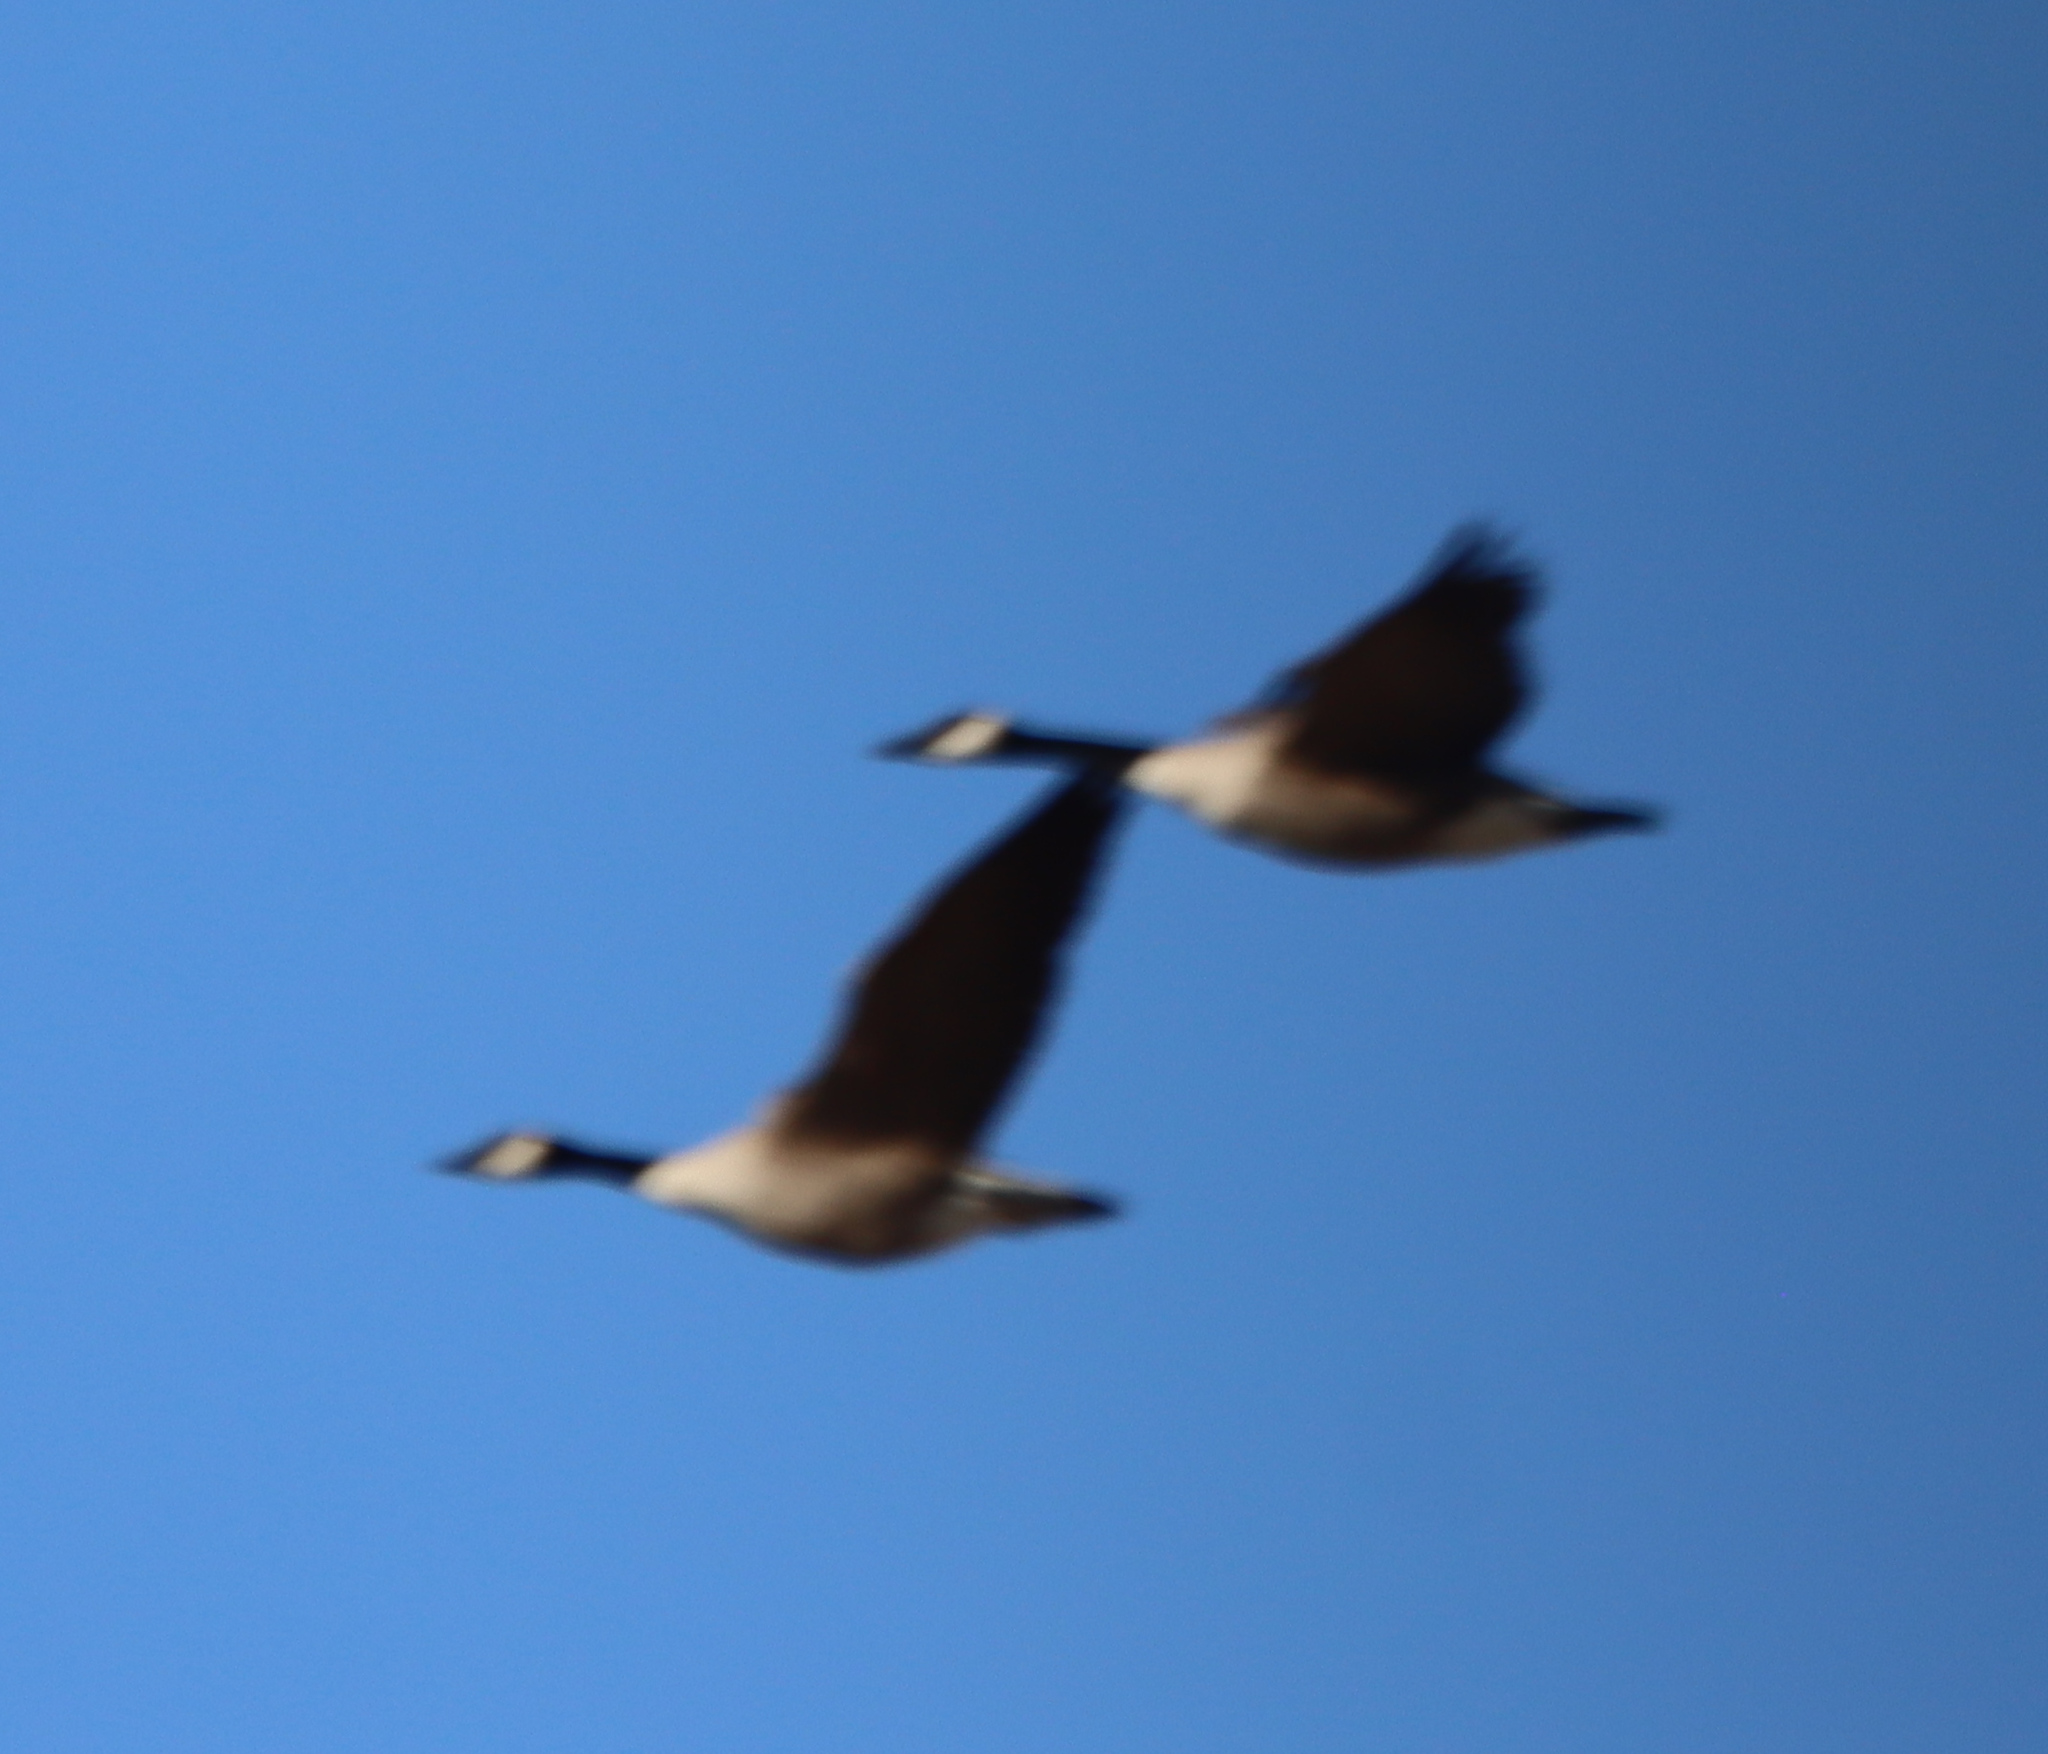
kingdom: Animalia
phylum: Chordata
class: Aves
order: Anseriformes
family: Anatidae
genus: Branta
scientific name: Branta canadensis
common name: Canada goose
